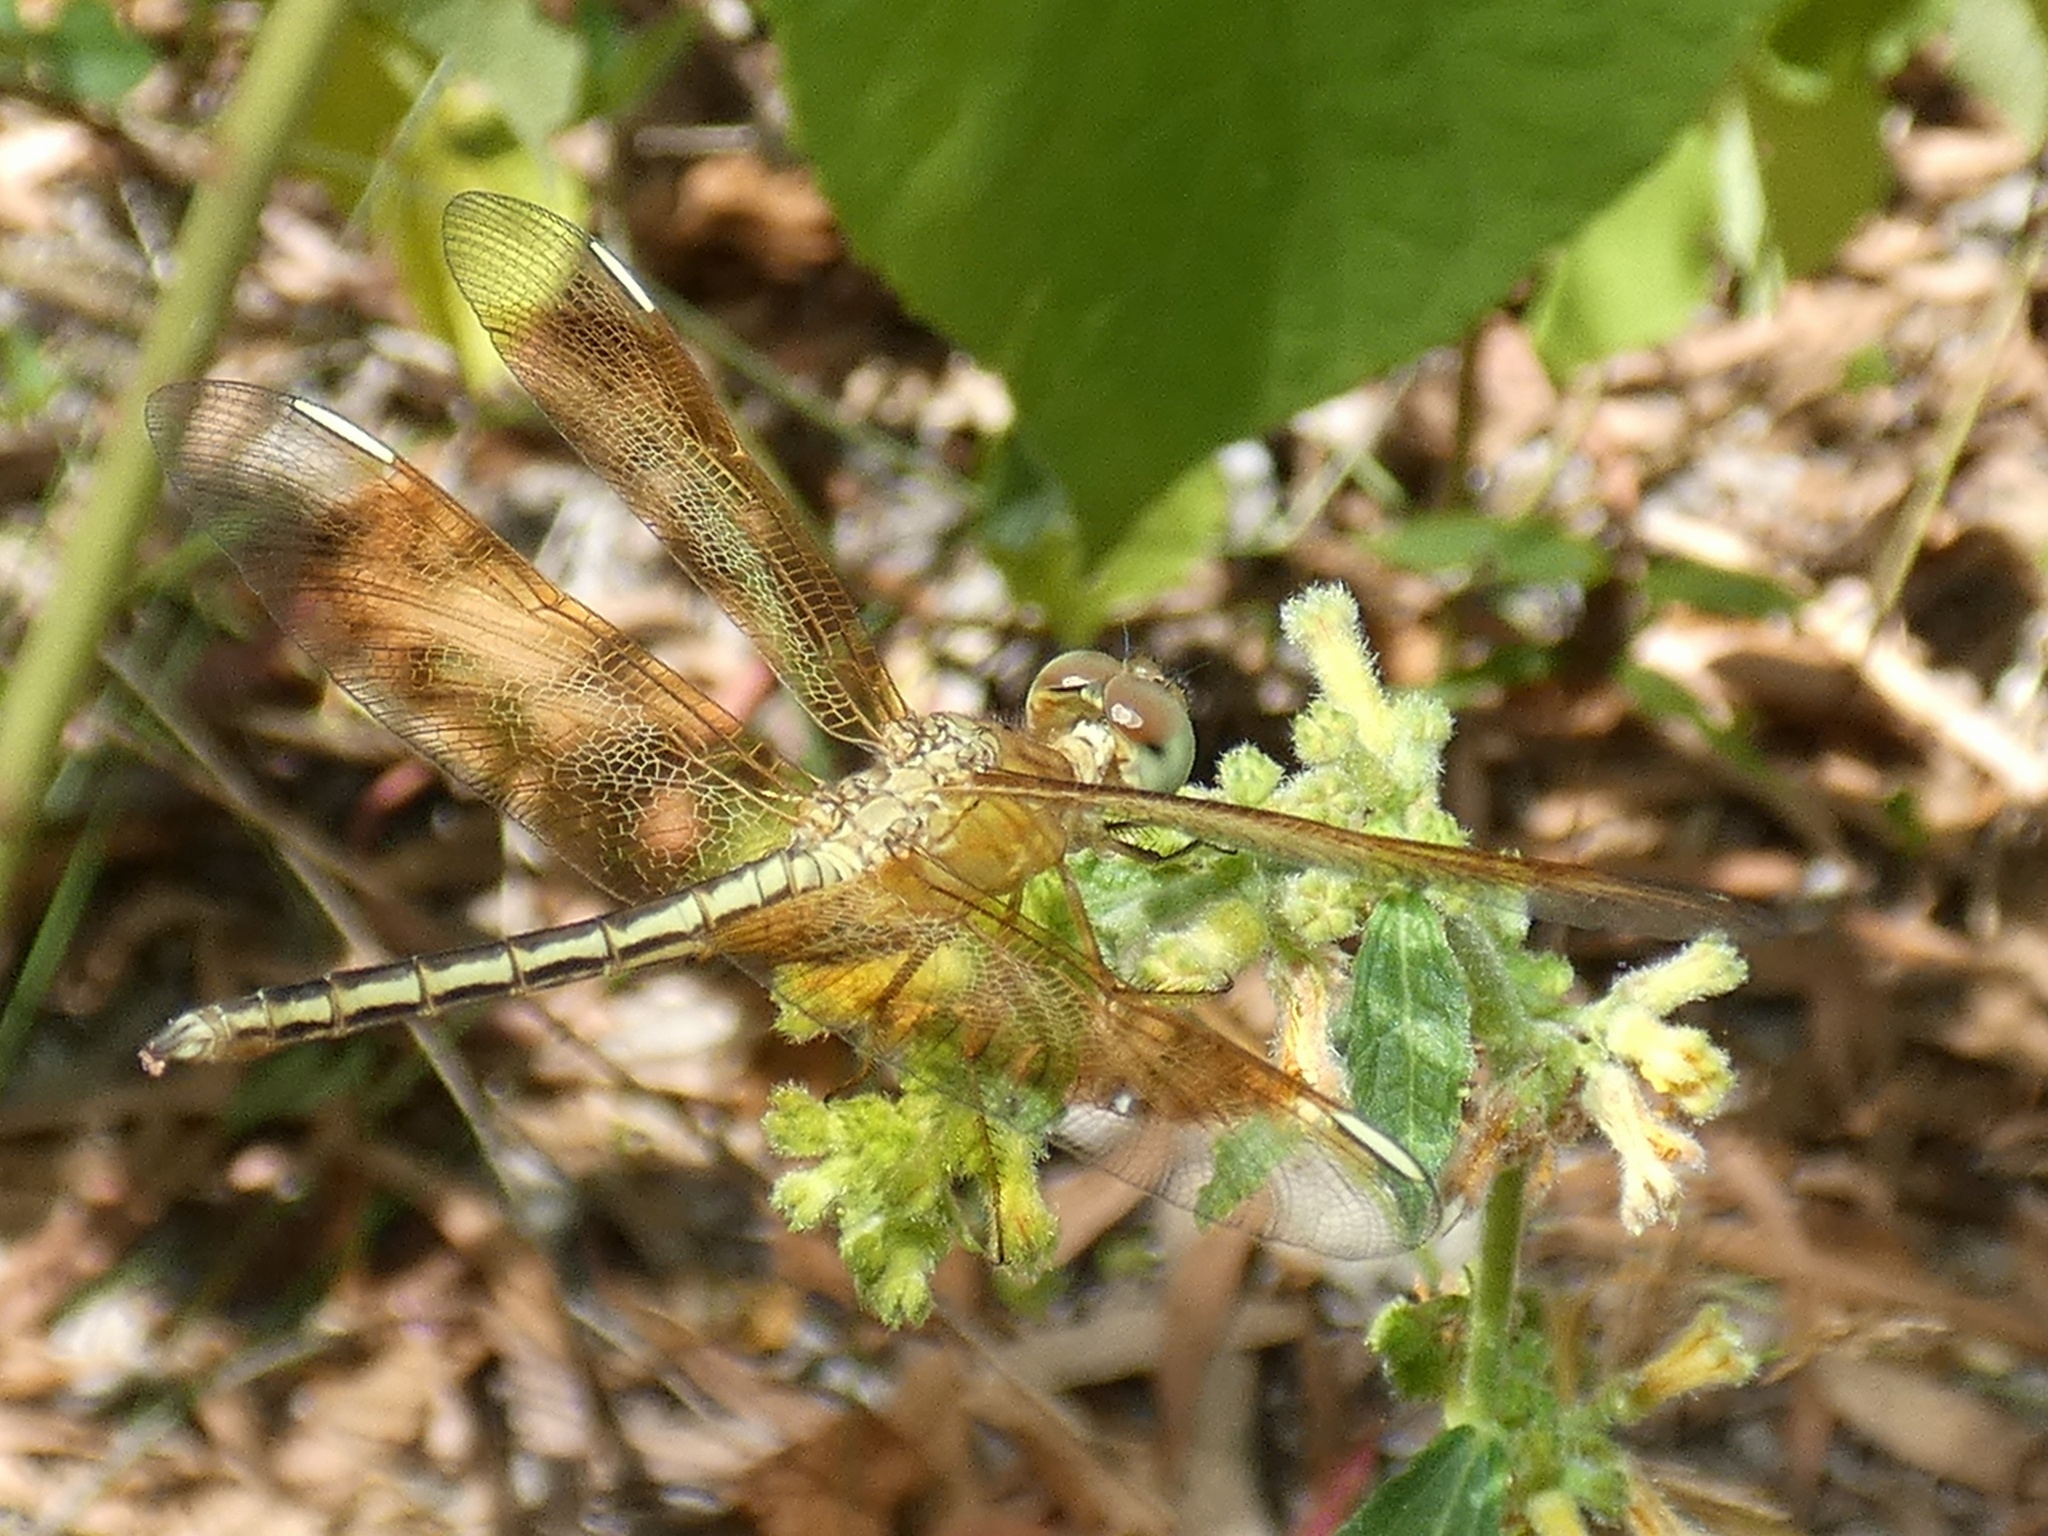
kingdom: Animalia
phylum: Arthropoda
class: Insecta
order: Odonata
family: Libellulidae
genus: Neurothemis
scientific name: Neurothemis stigmatizans
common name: Painted grasshawk
